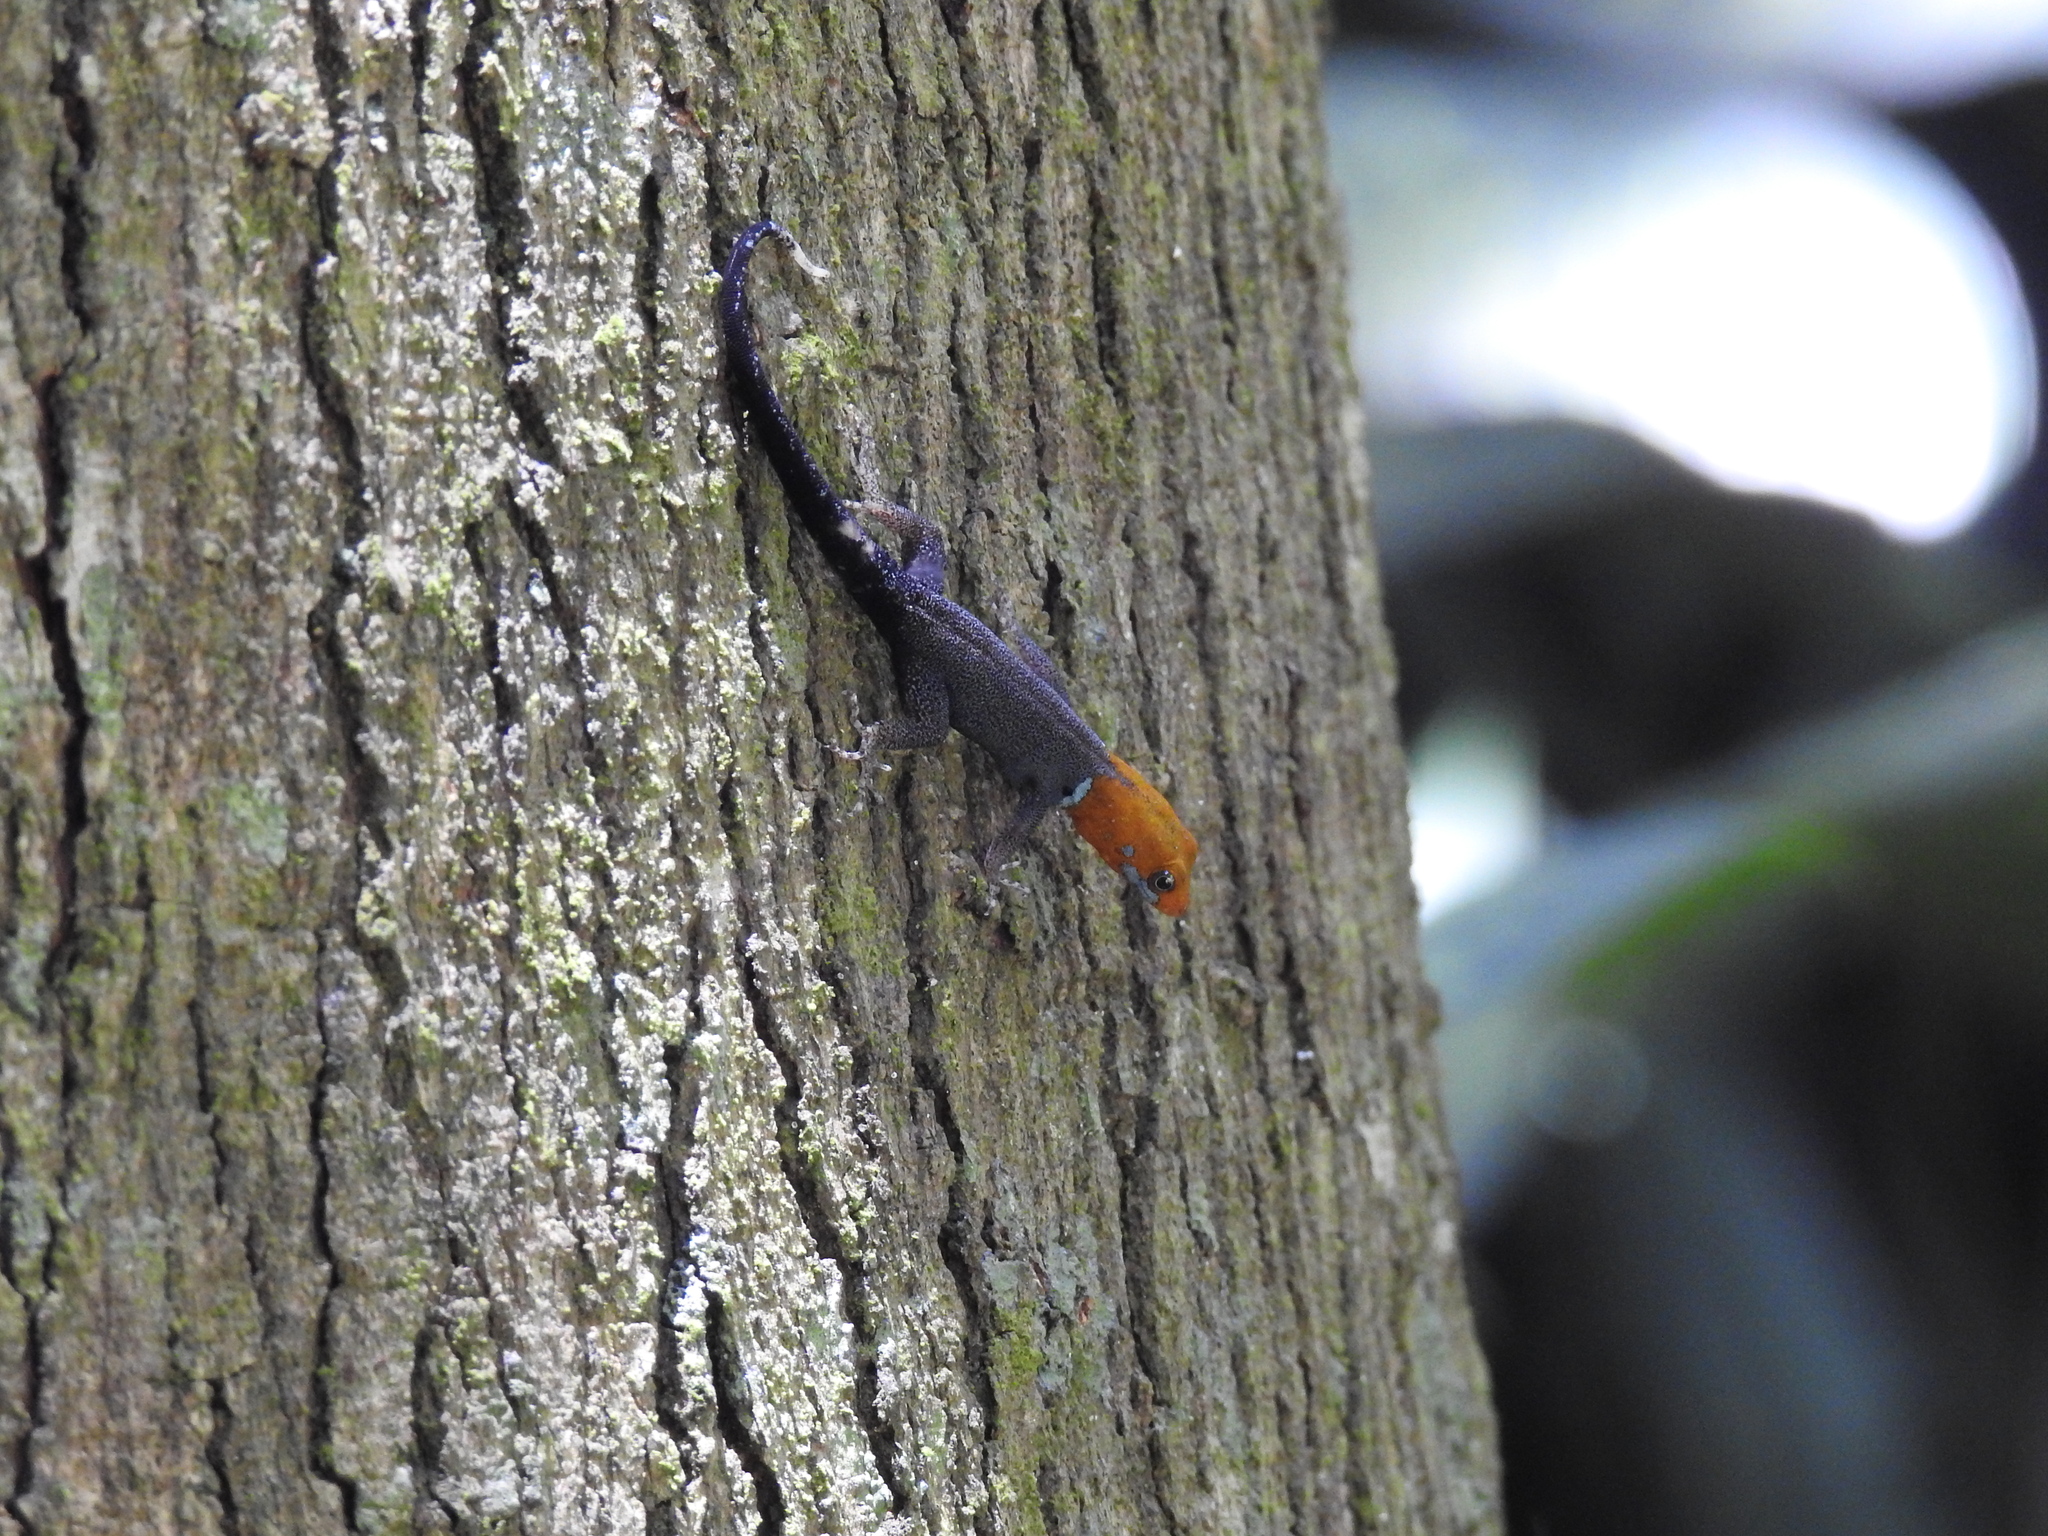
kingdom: Animalia
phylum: Chordata
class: Squamata
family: Sphaerodactylidae
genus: Gonatodes
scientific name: Gonatodes albogularis
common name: Yellow-headed gecko
